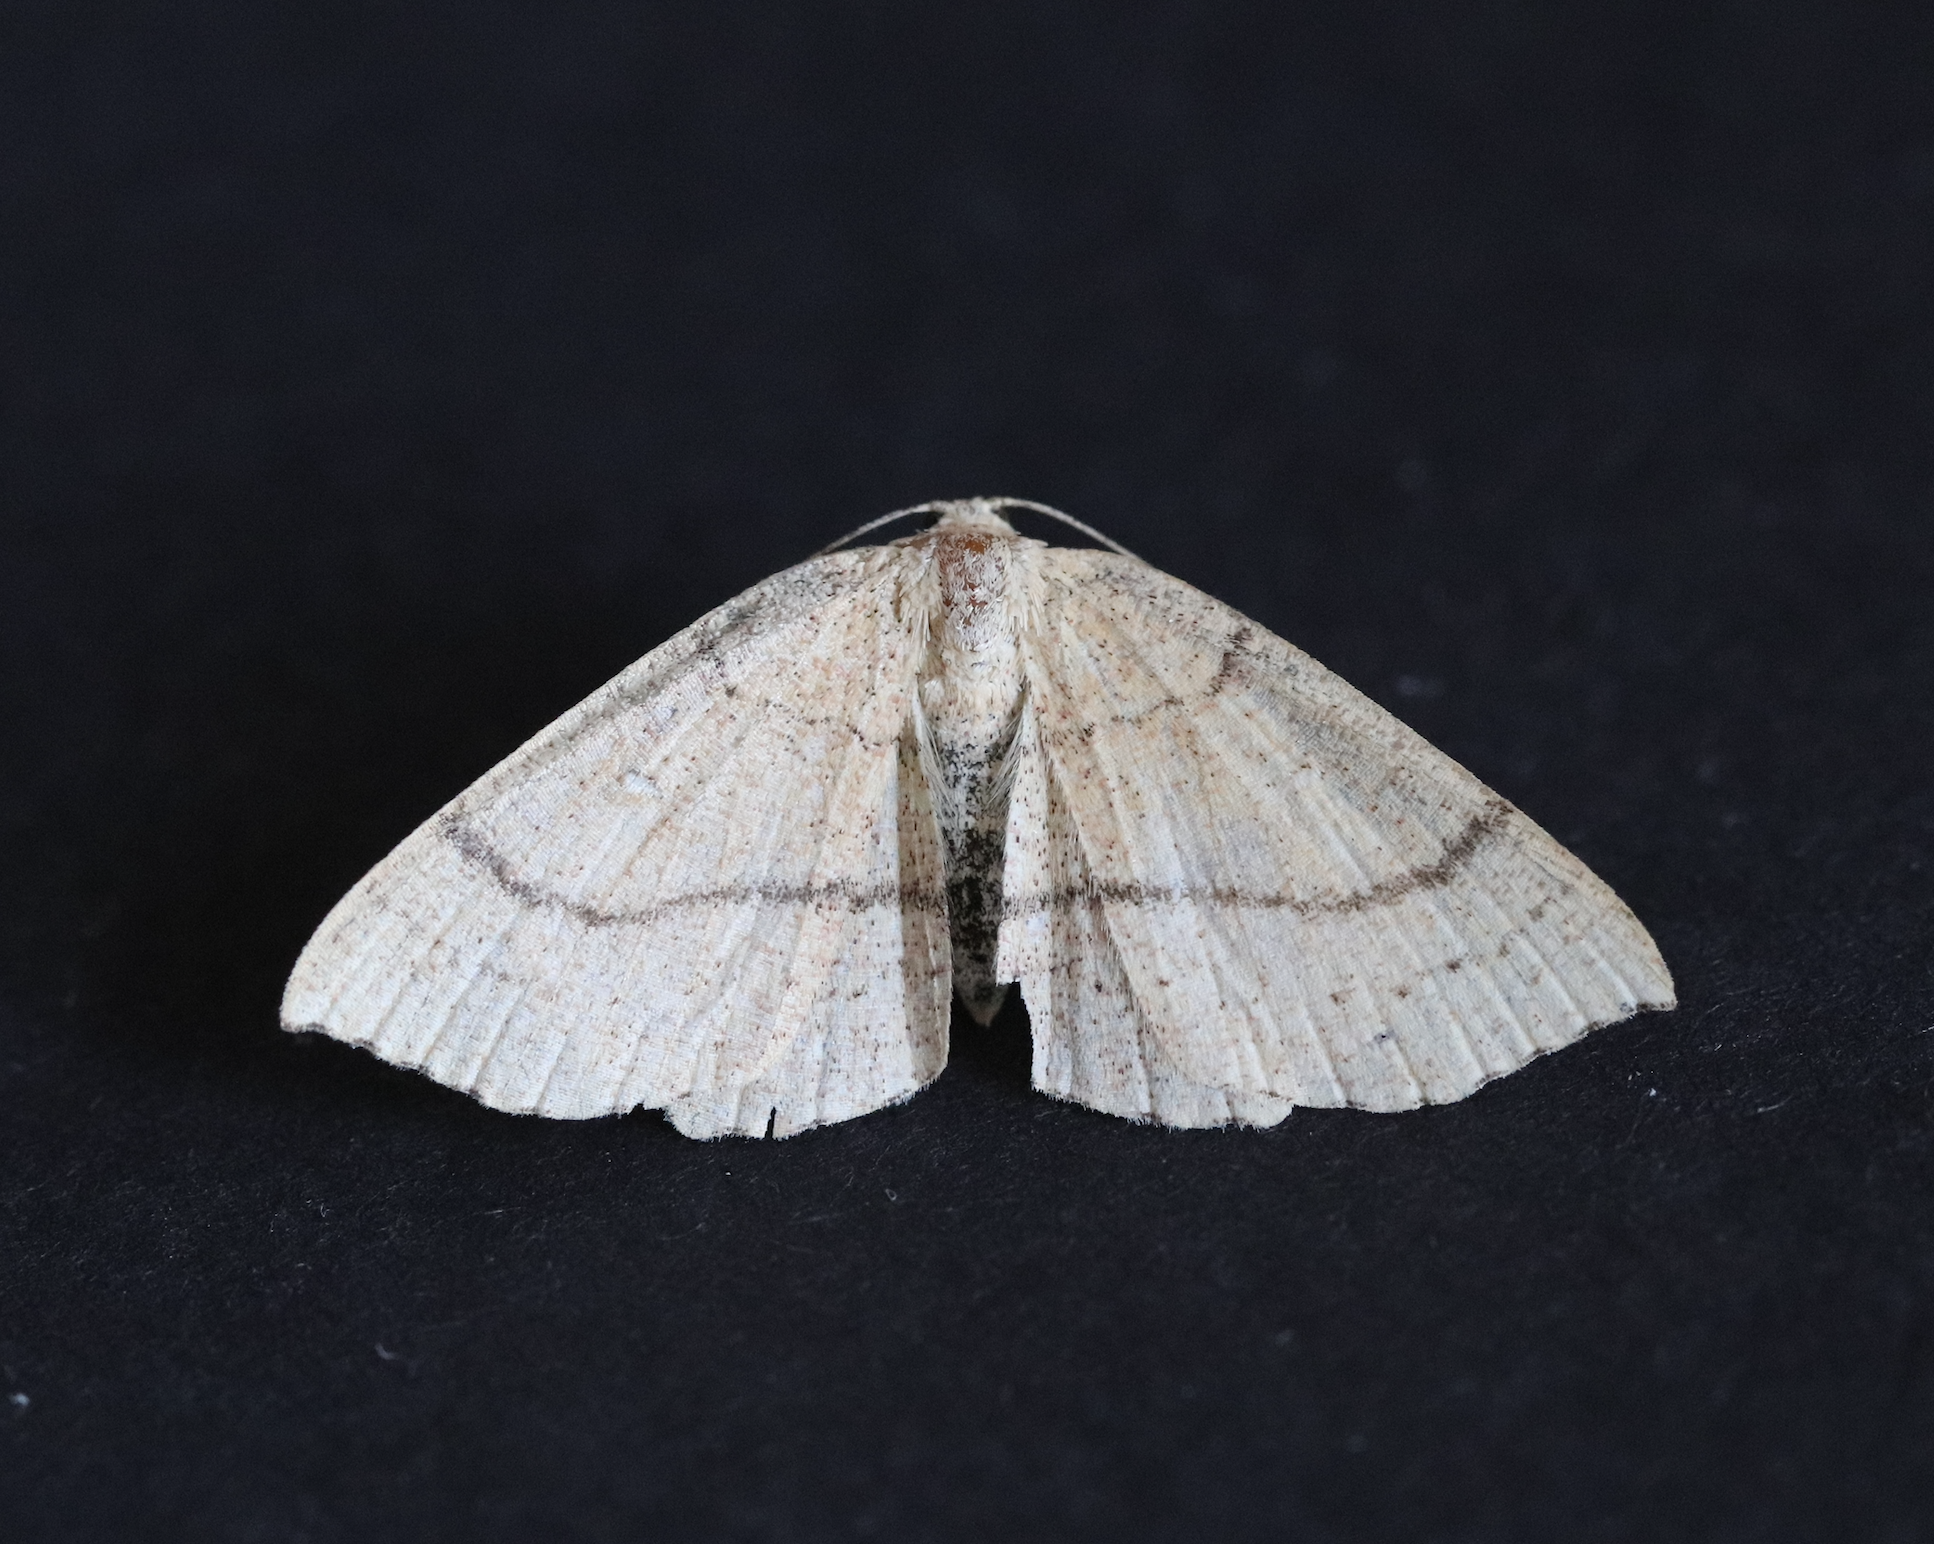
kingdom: Animalia
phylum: Arthropoda
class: Insecta
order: Lepidoptera
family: Geometridae
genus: Cyclophora
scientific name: Cyclophora linearia
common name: Clay triple-lines
